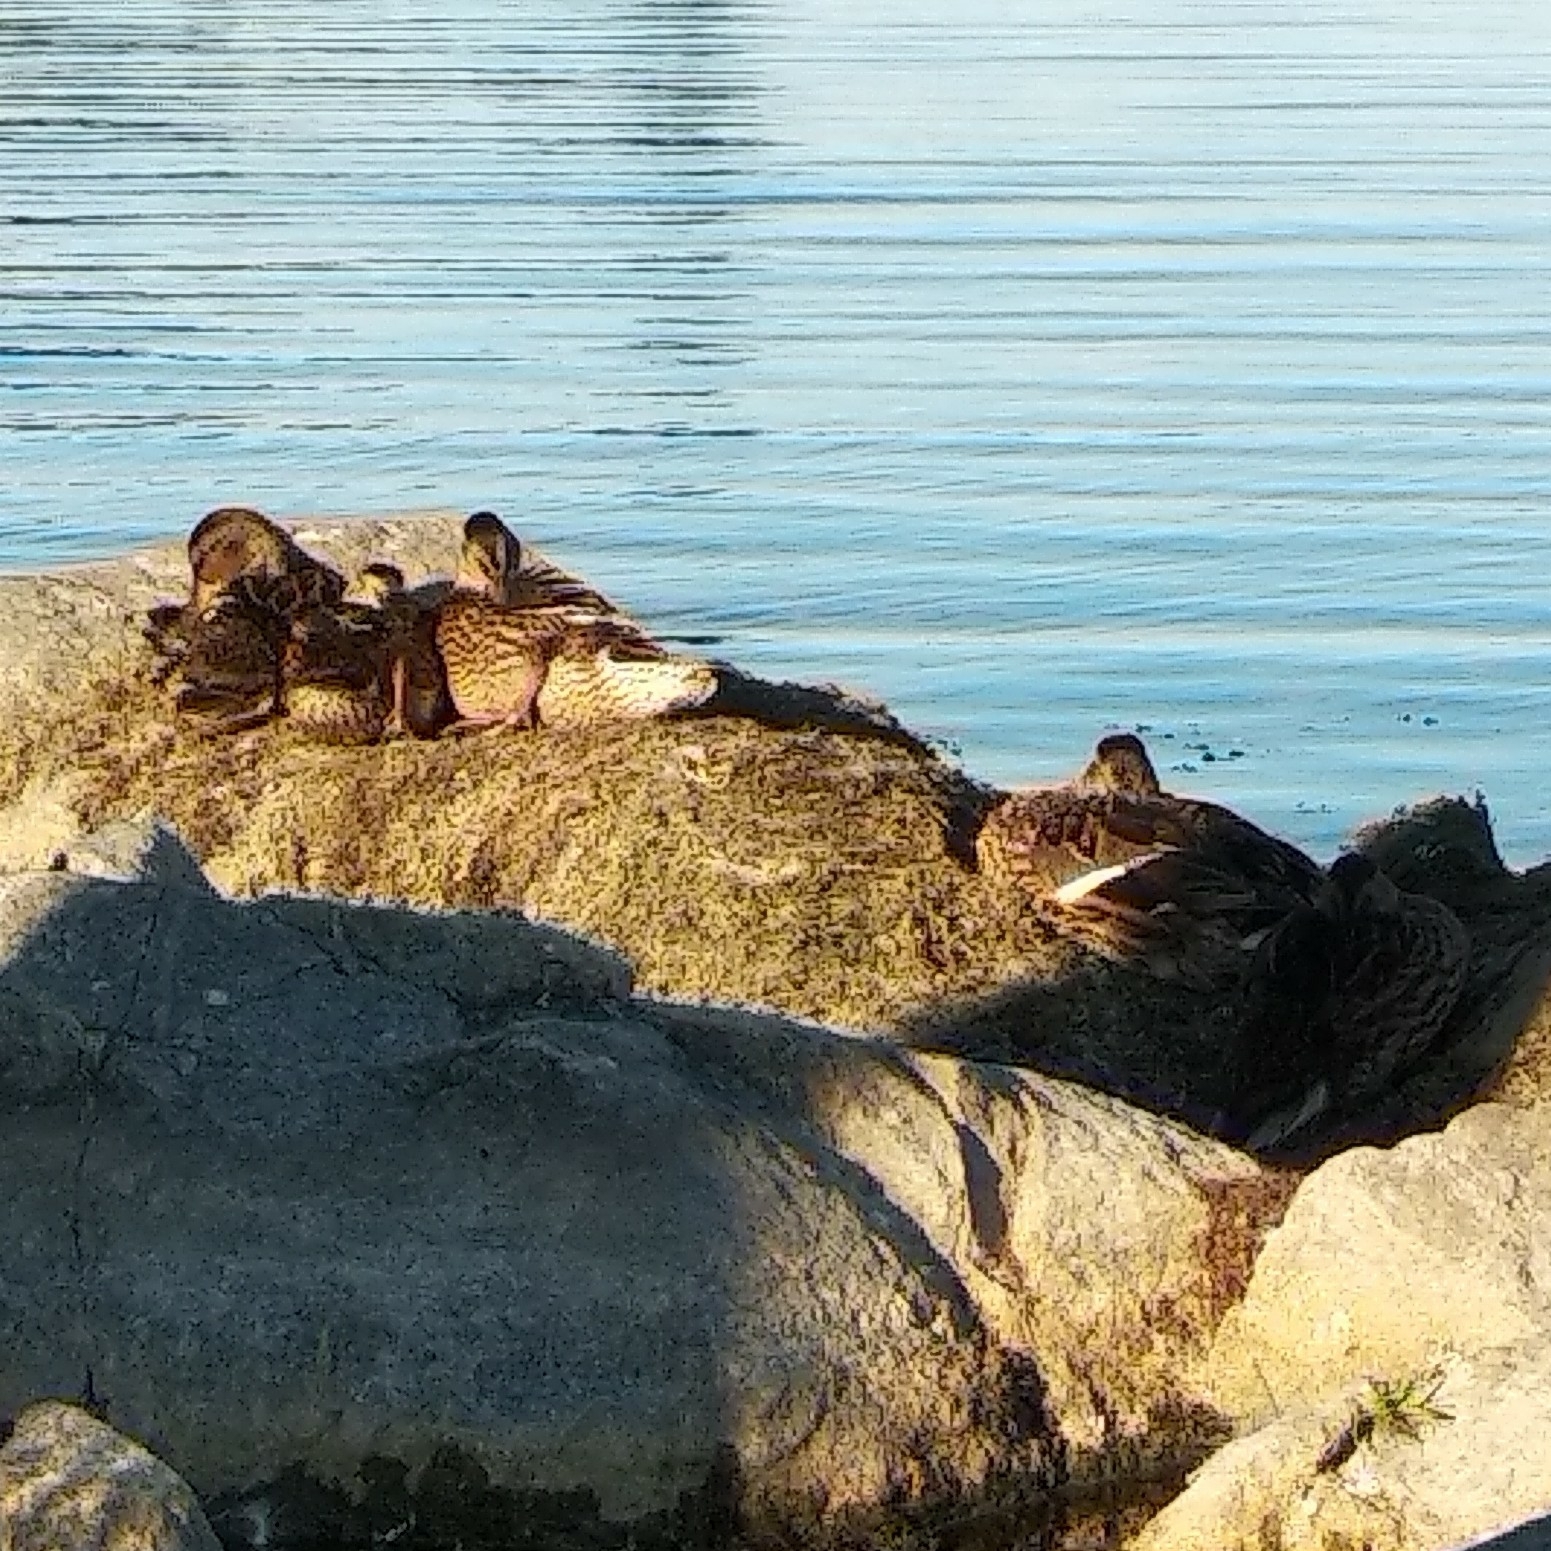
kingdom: Animalia
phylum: Chordata
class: Aves
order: Anseriformes
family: Anatidae
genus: Anas
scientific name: Anas platyrhynchos
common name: Mallard
